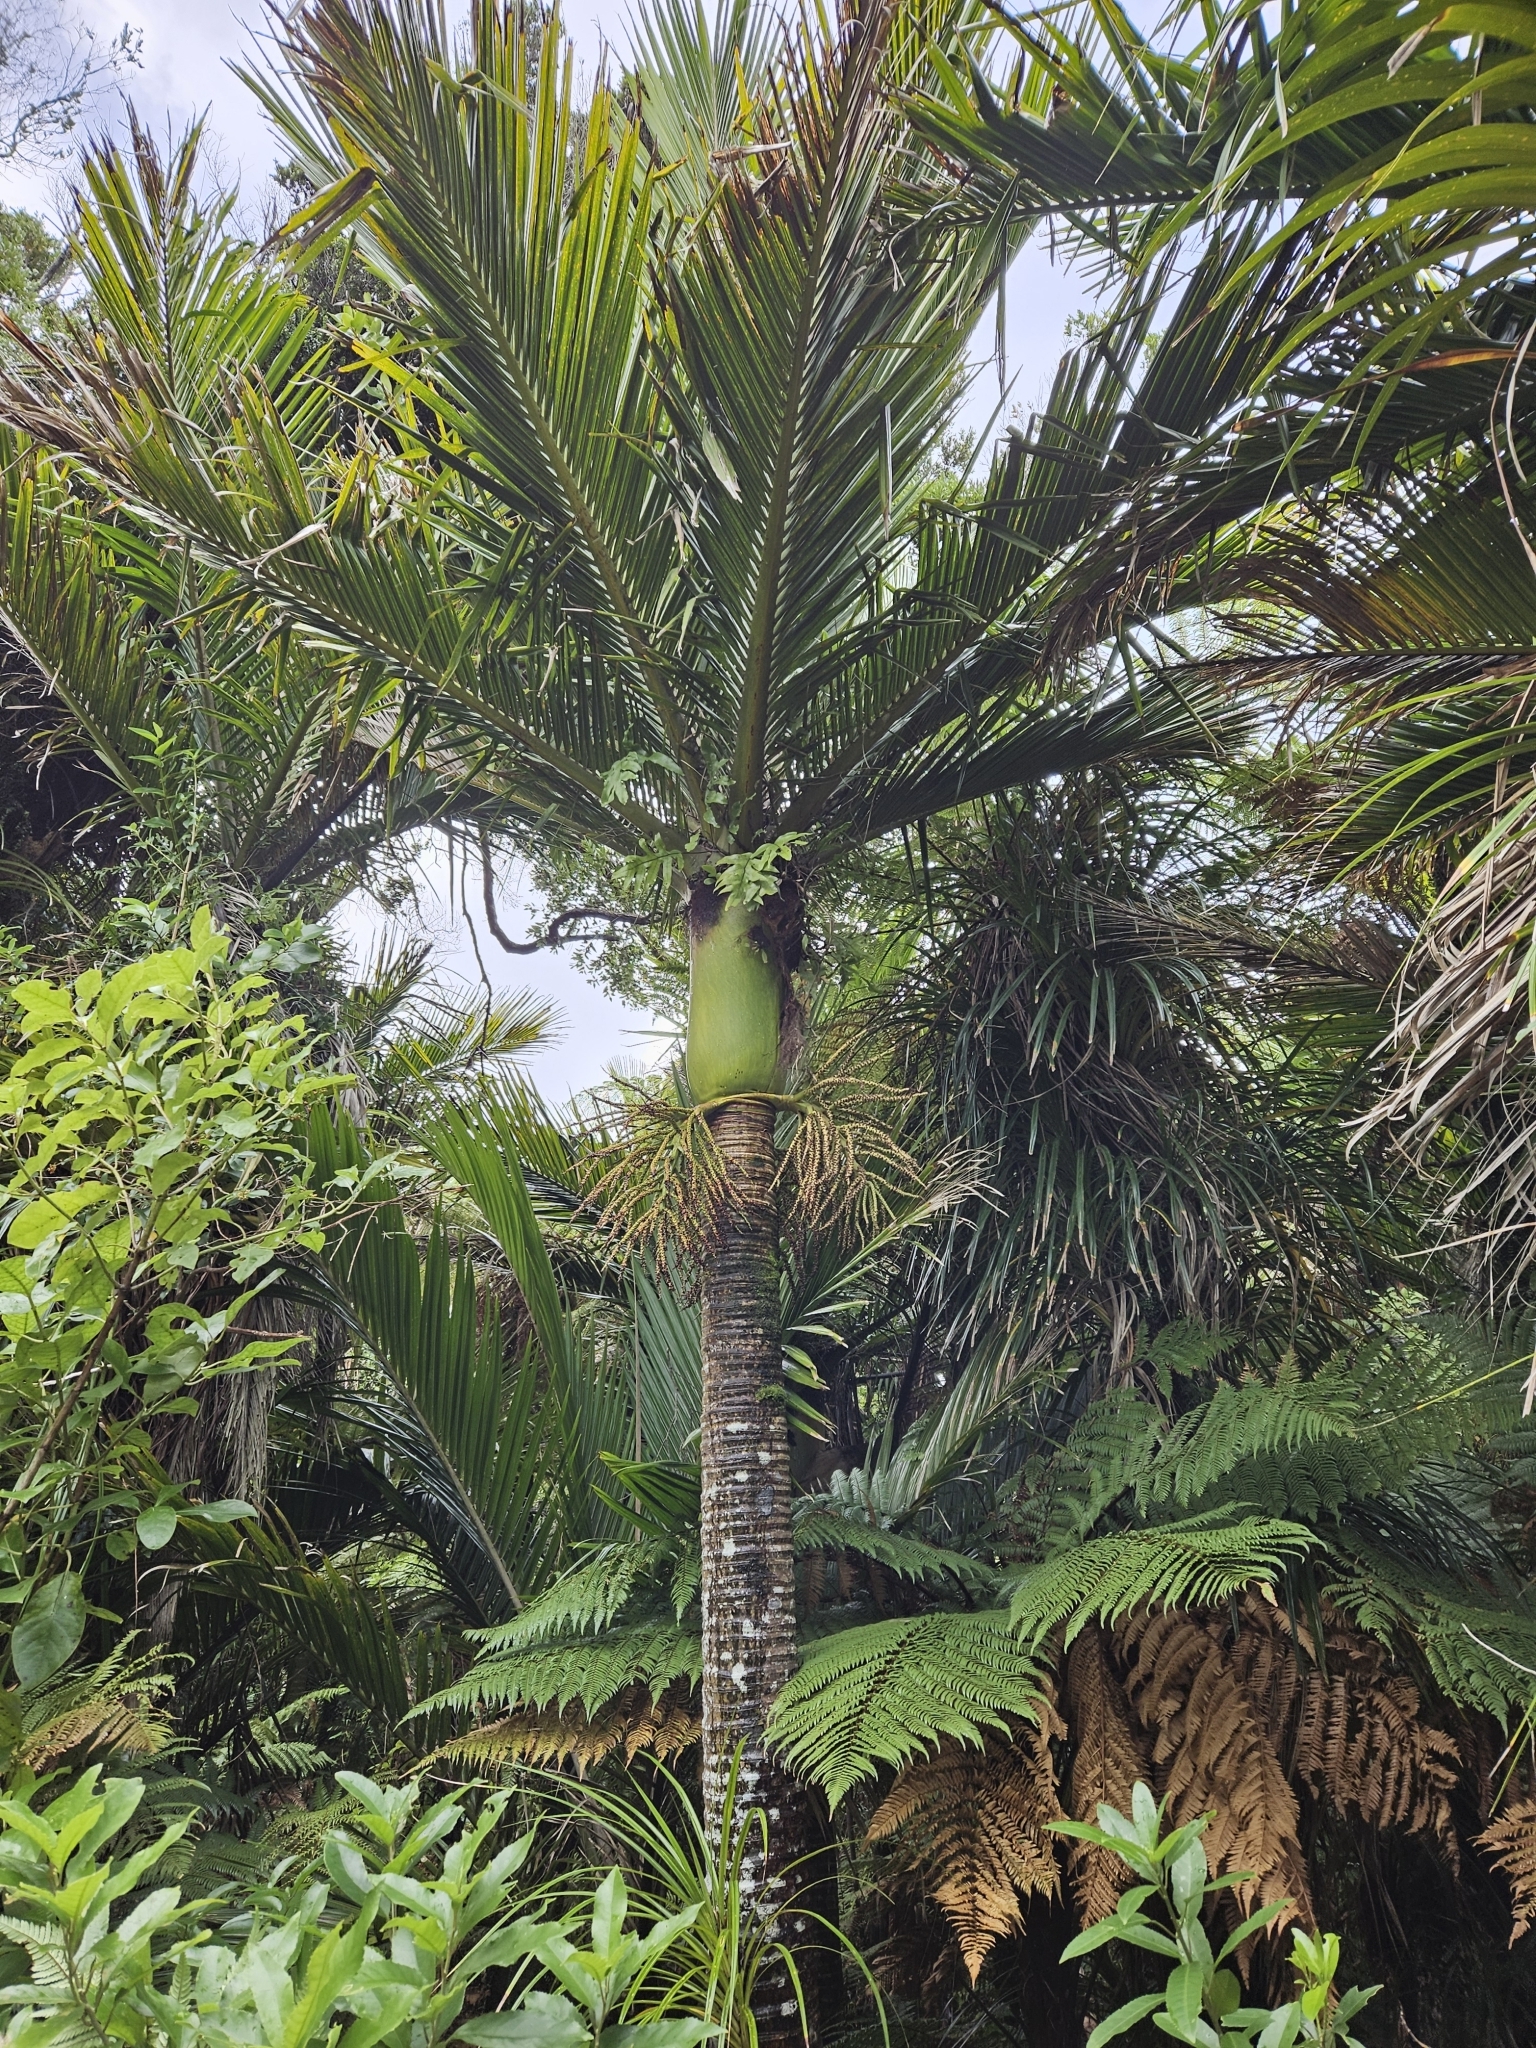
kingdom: Plantae
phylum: Tracheophyta
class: Liliopsida
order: Arecales
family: Arecaceae
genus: Rhopalostylis
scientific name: Rhopalostylis sapida
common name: Feather-duster palm
